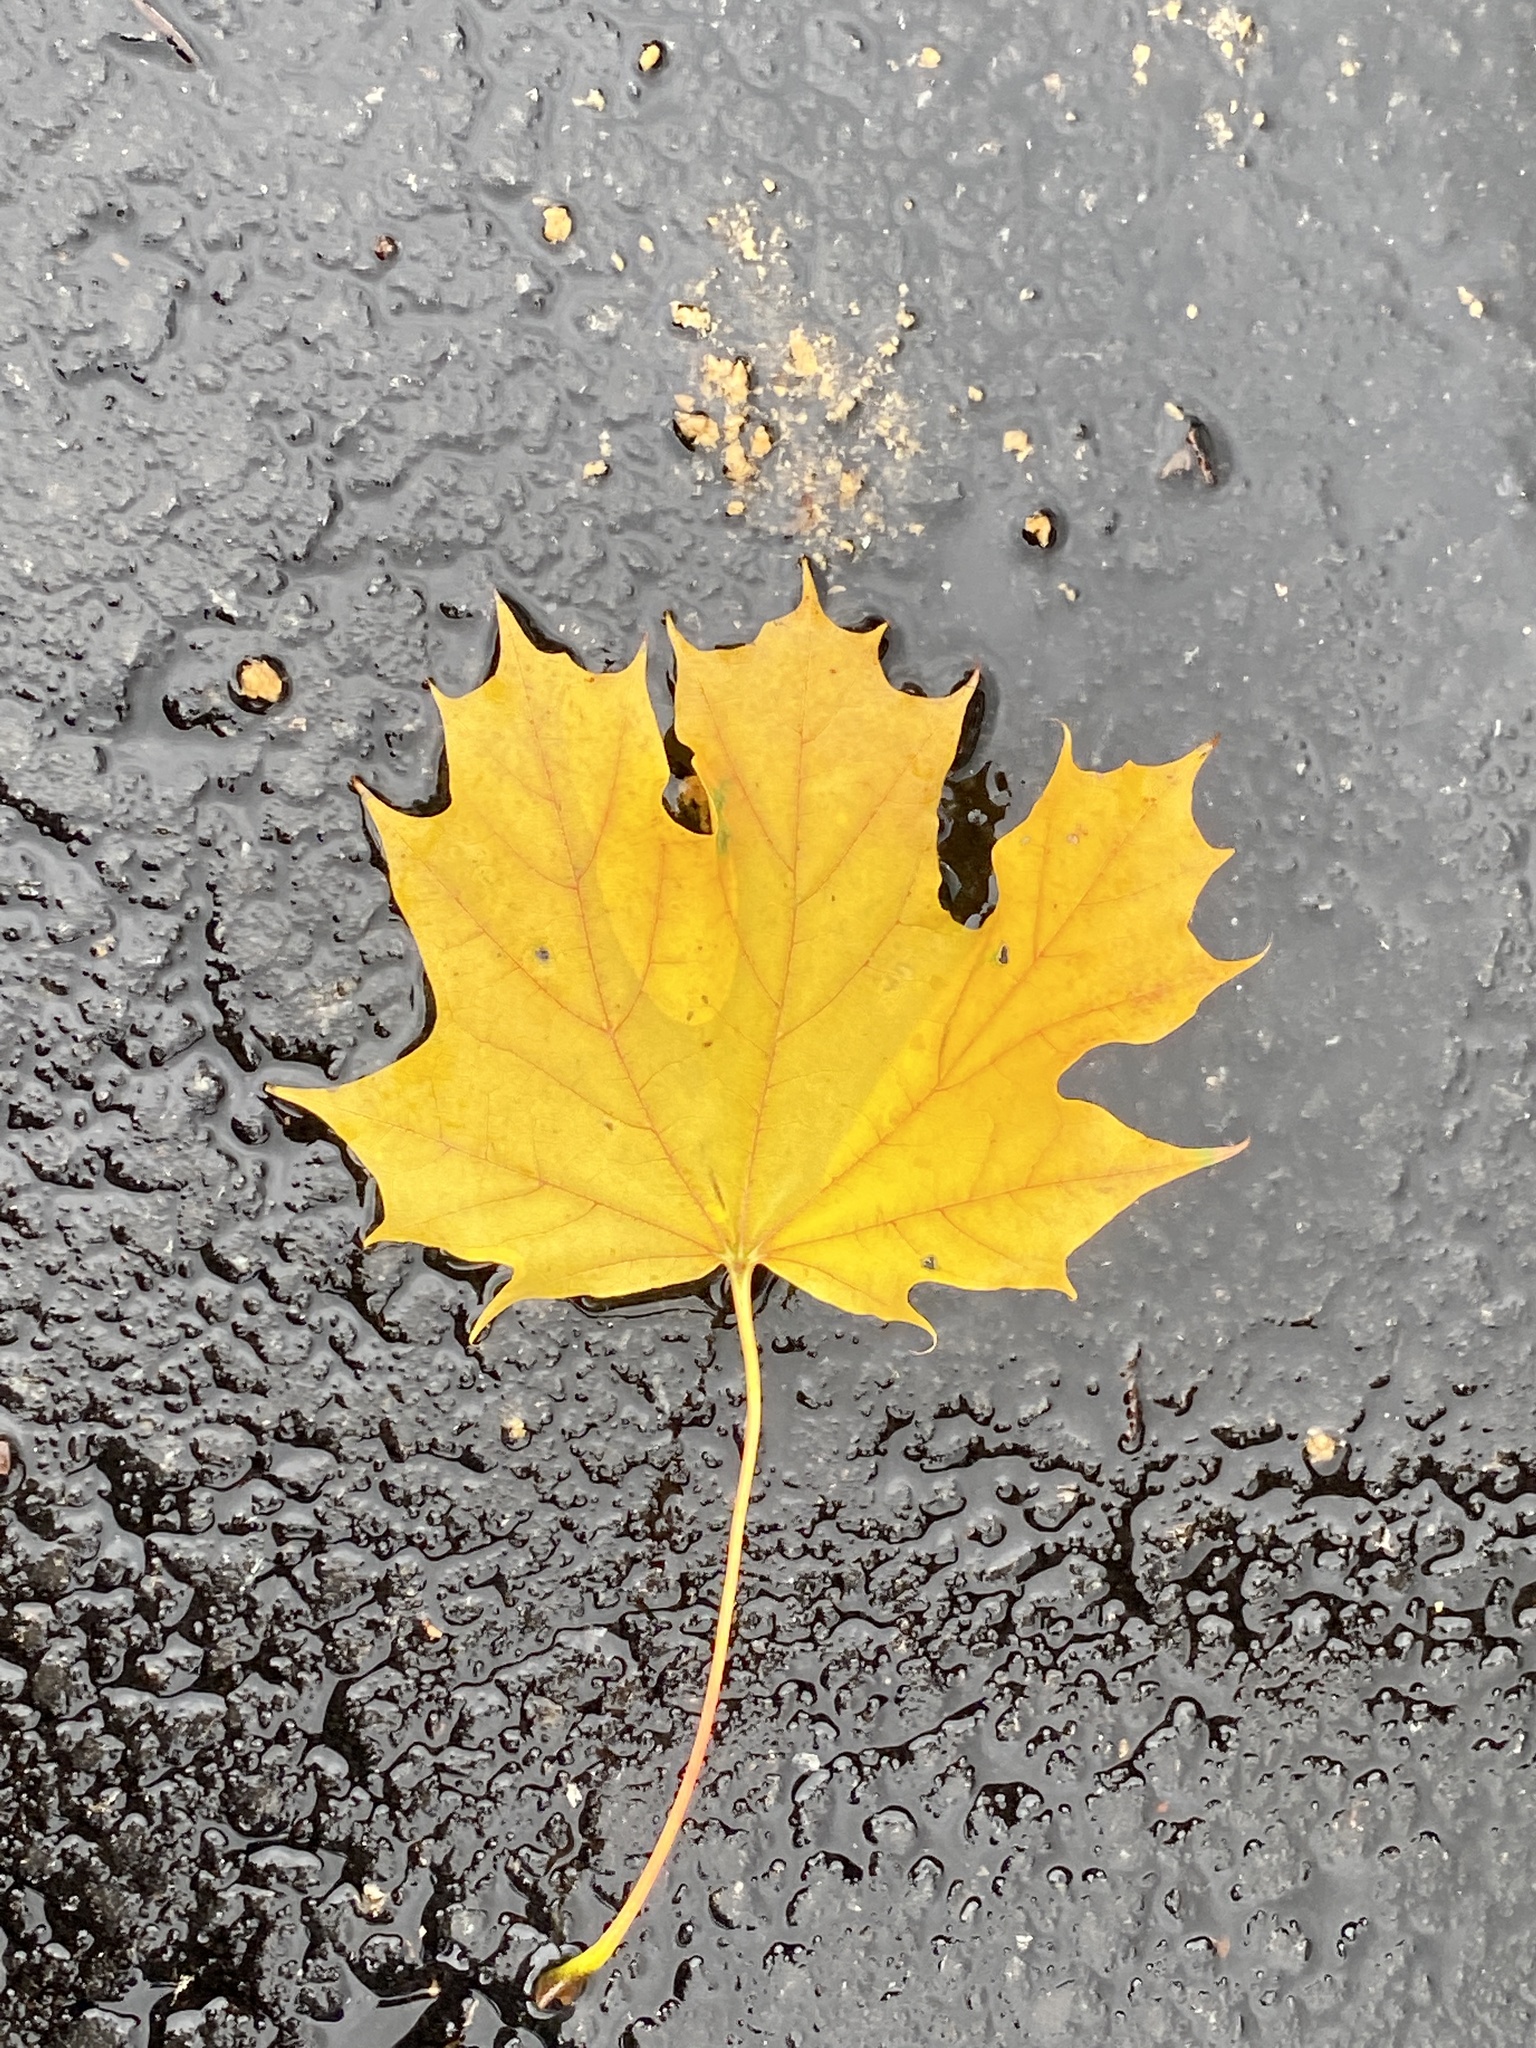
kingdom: Plantae
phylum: Tracheophyta
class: Magnoliopsida
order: Sapindales
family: Sapindaceae
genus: Acer
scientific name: Acer platanoides
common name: Norway maple
